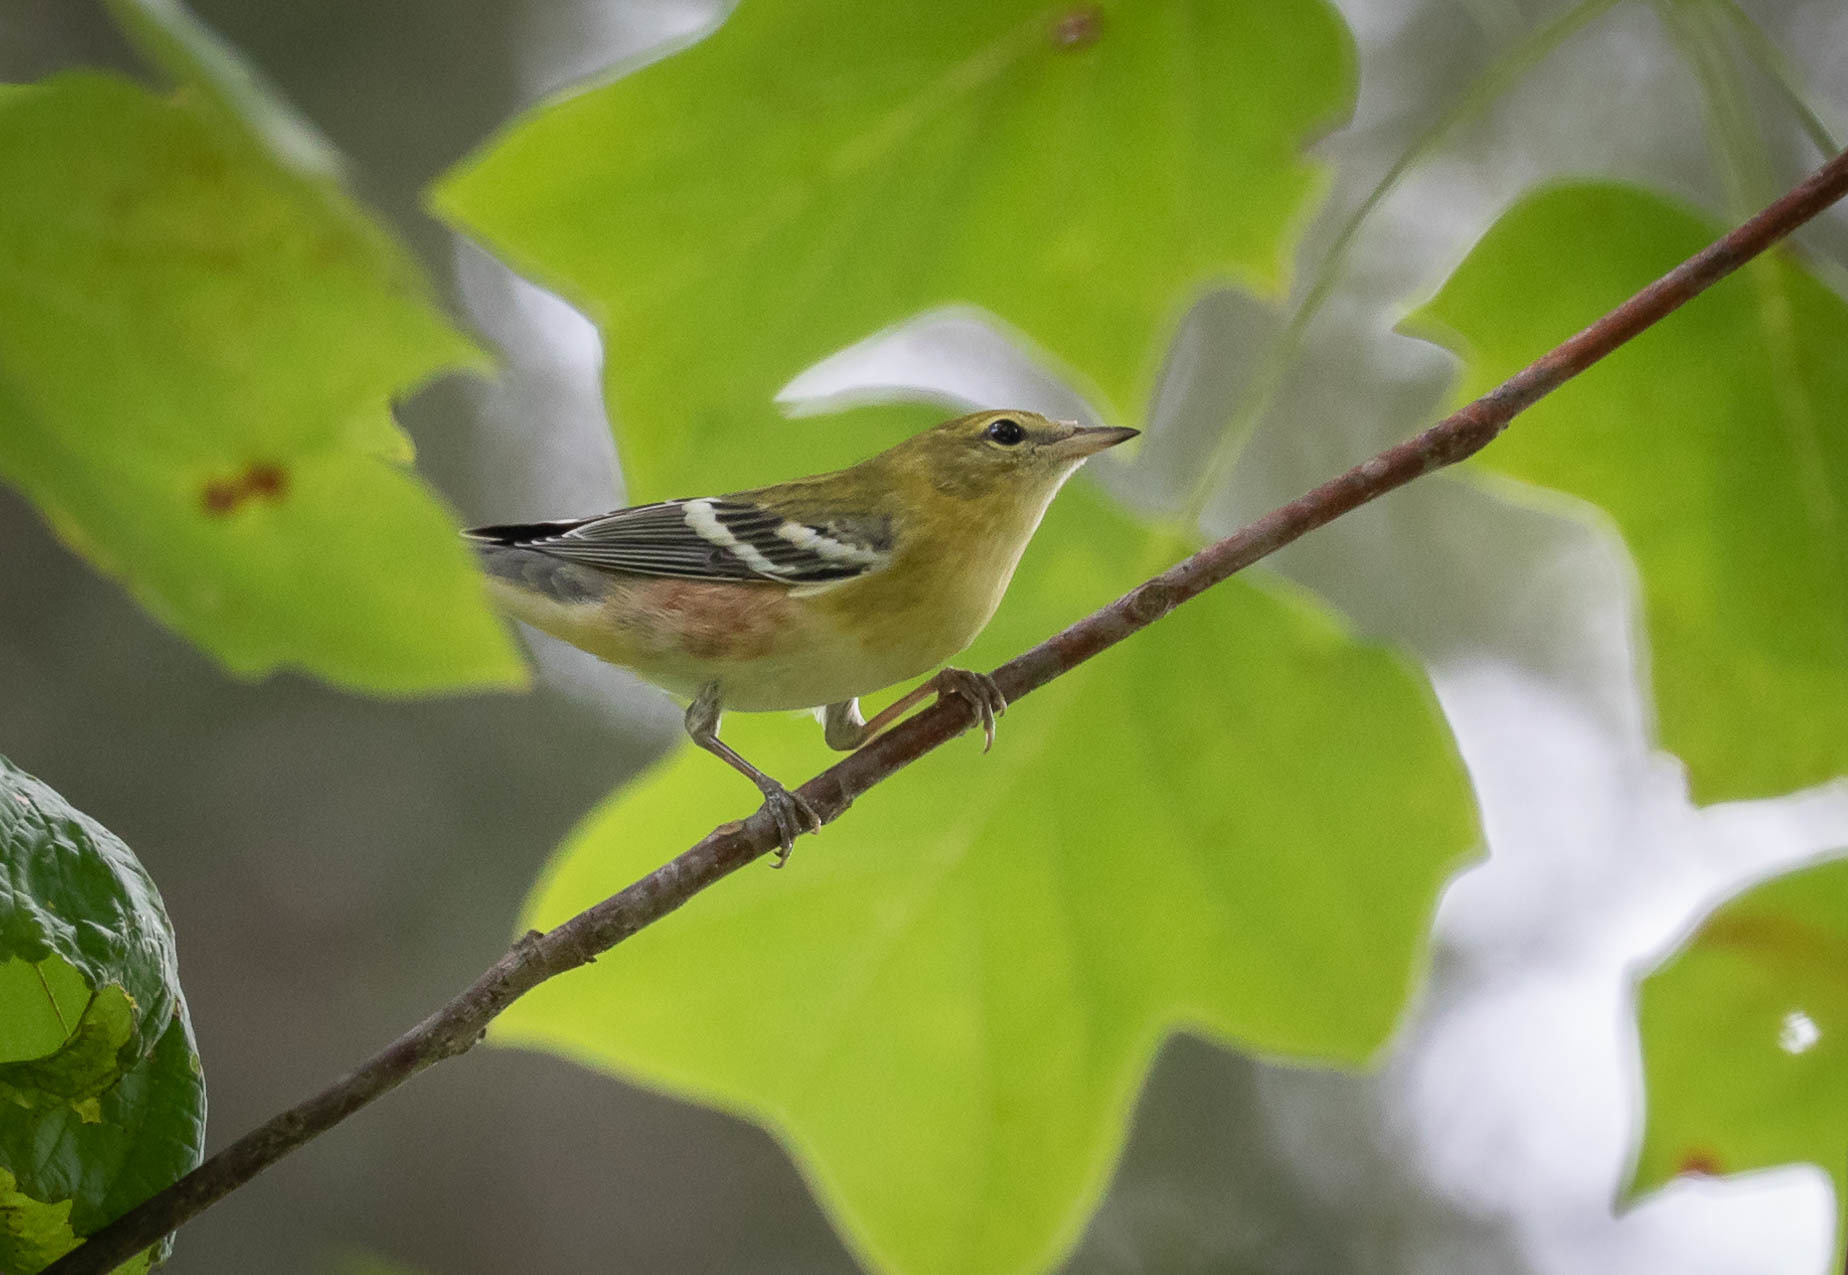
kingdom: Animalia
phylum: Chordata
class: Aves
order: Passeriformes
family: Parulidae
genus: Setophaga
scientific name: Setophaga castanea
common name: Bay-breasted warbler
